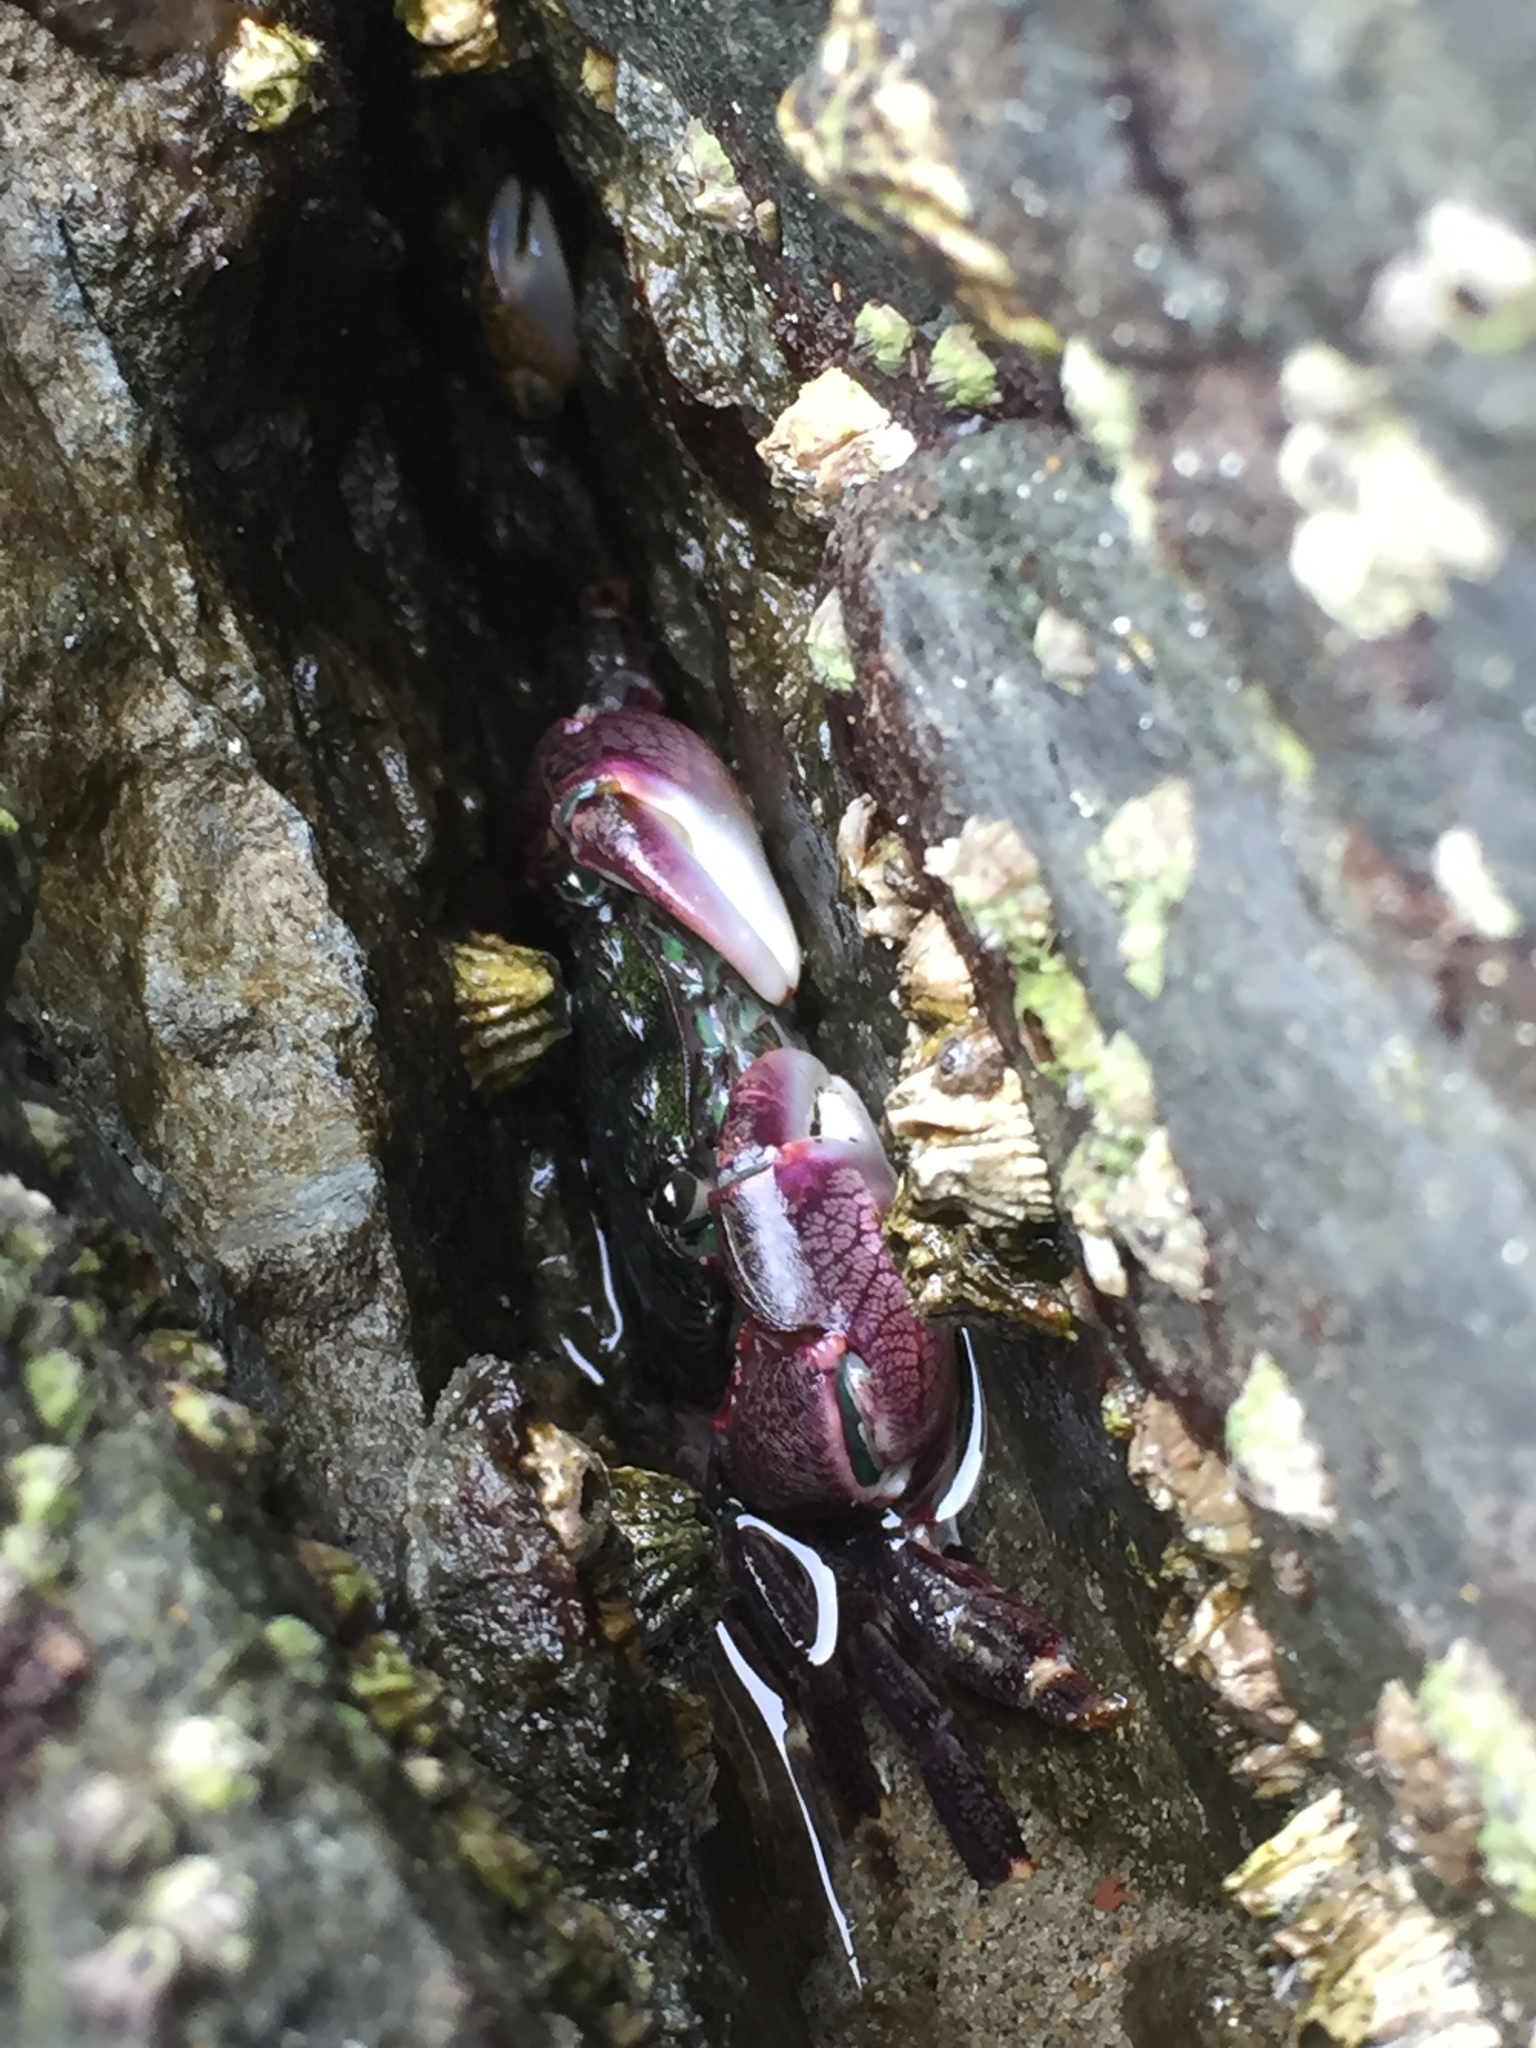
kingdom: Animalia
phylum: Arthropoda
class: Malacostraca
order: Decapoda
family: Grapsidae
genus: Pachygrapsus
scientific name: Pachygrapsus crassipes
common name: Striped shore crab
